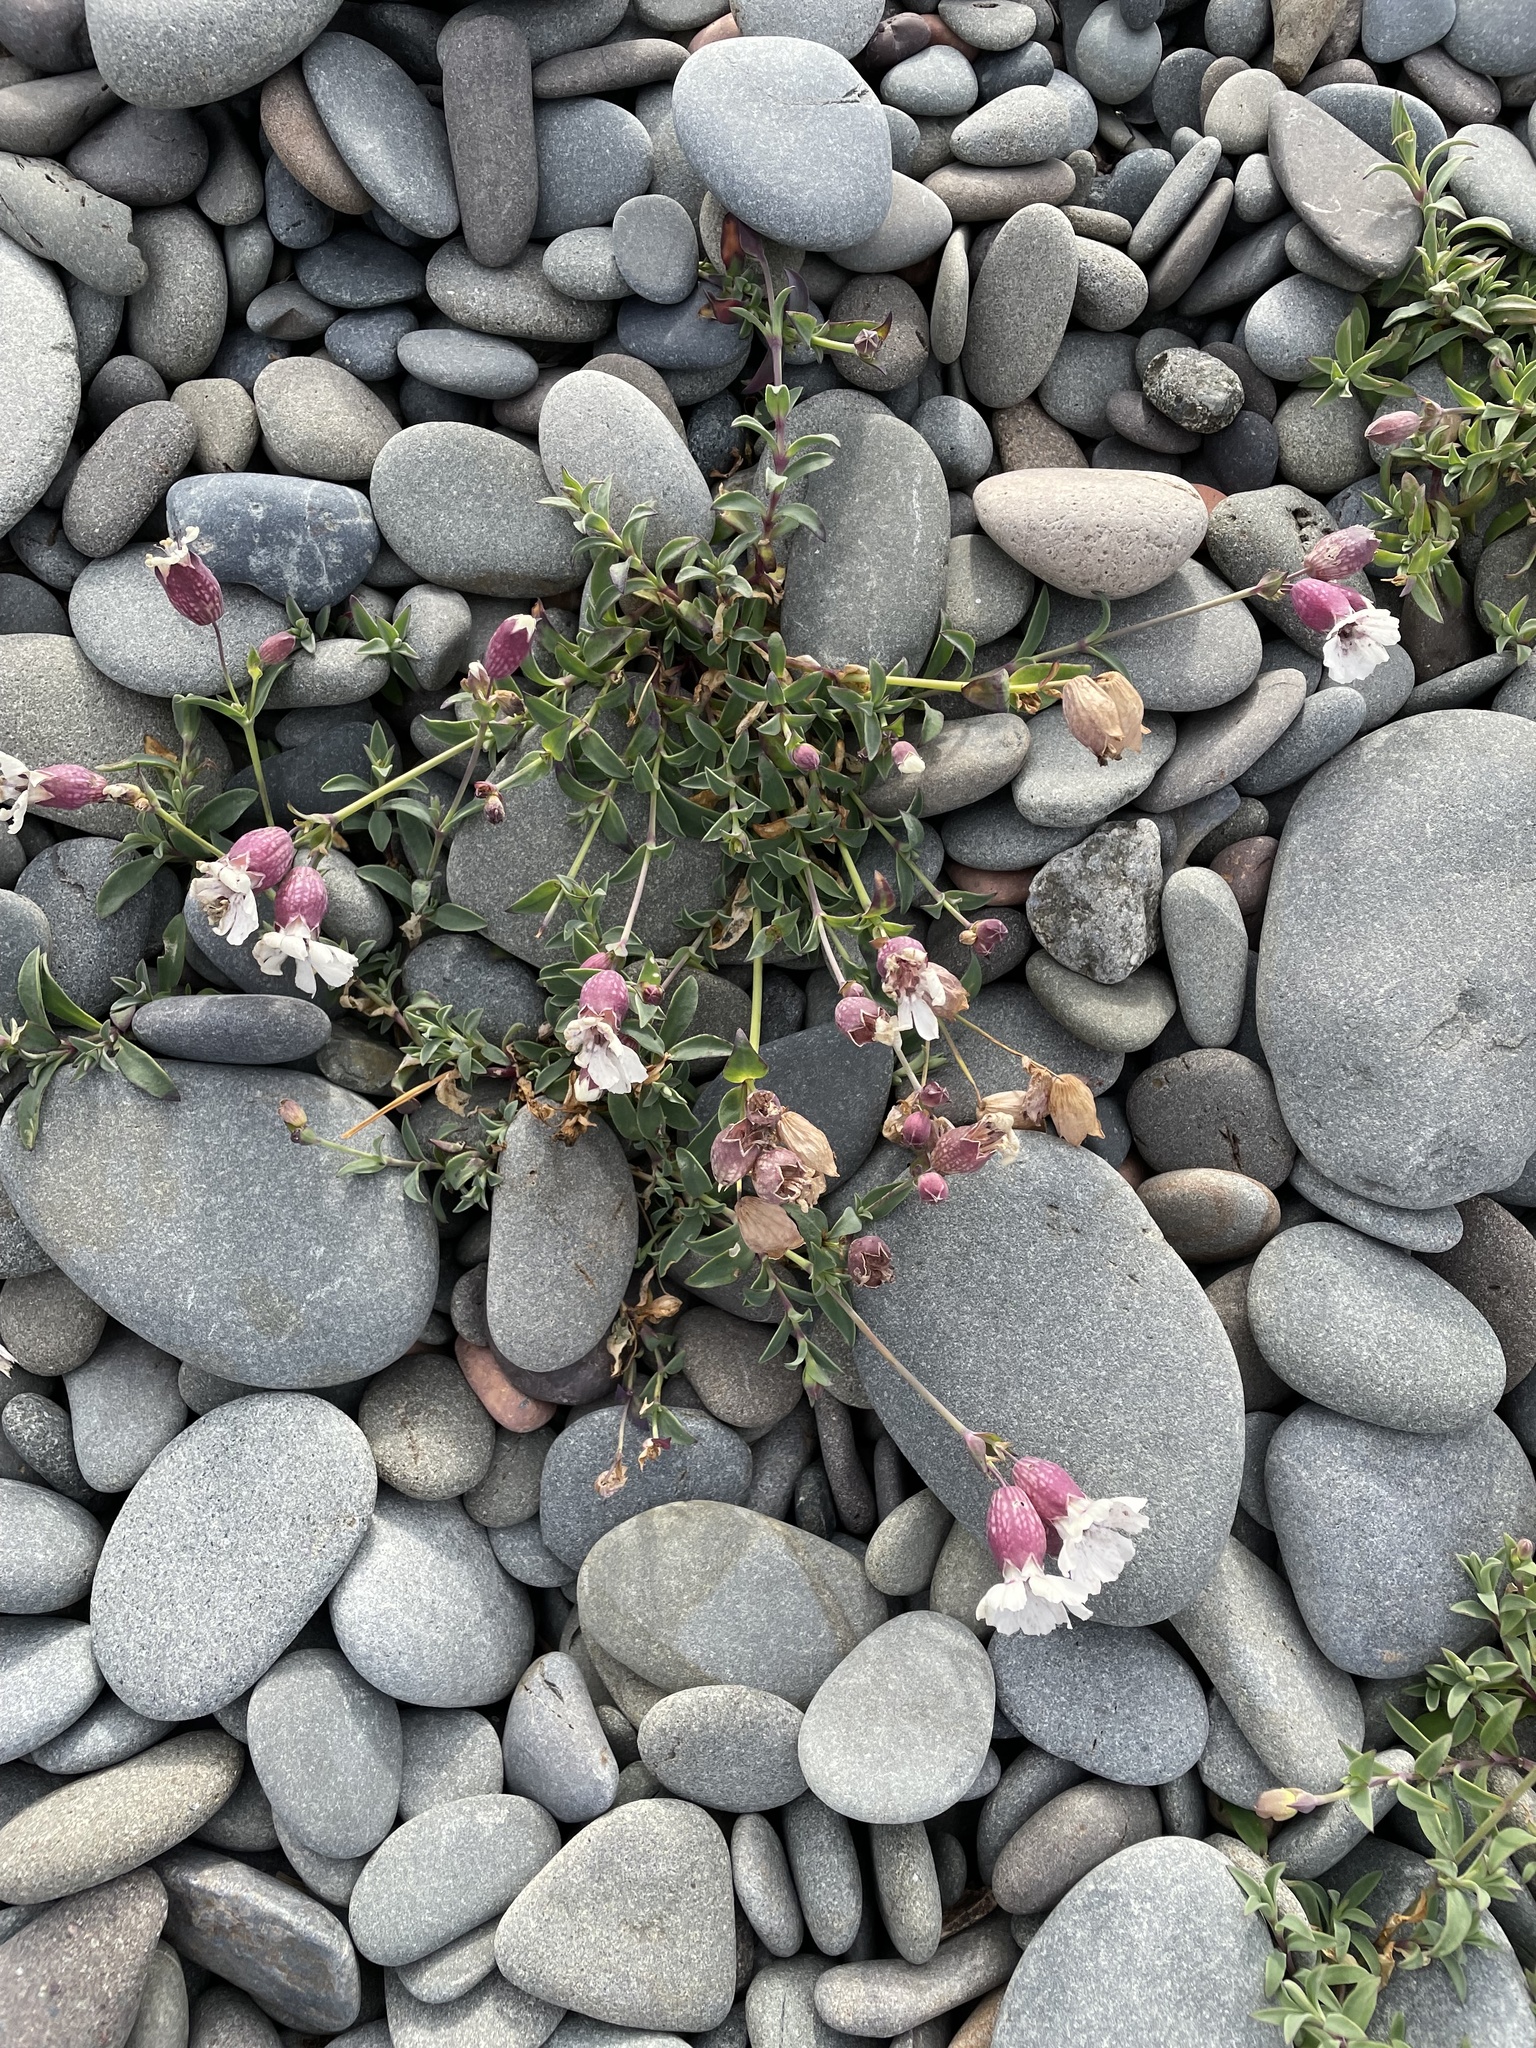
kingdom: Plantae
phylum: Tracheophyta
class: Magnoliopsida
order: Caryophyllales
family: Caryophyllaceae
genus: Silene
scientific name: Silene uniflora
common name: Sea campion
